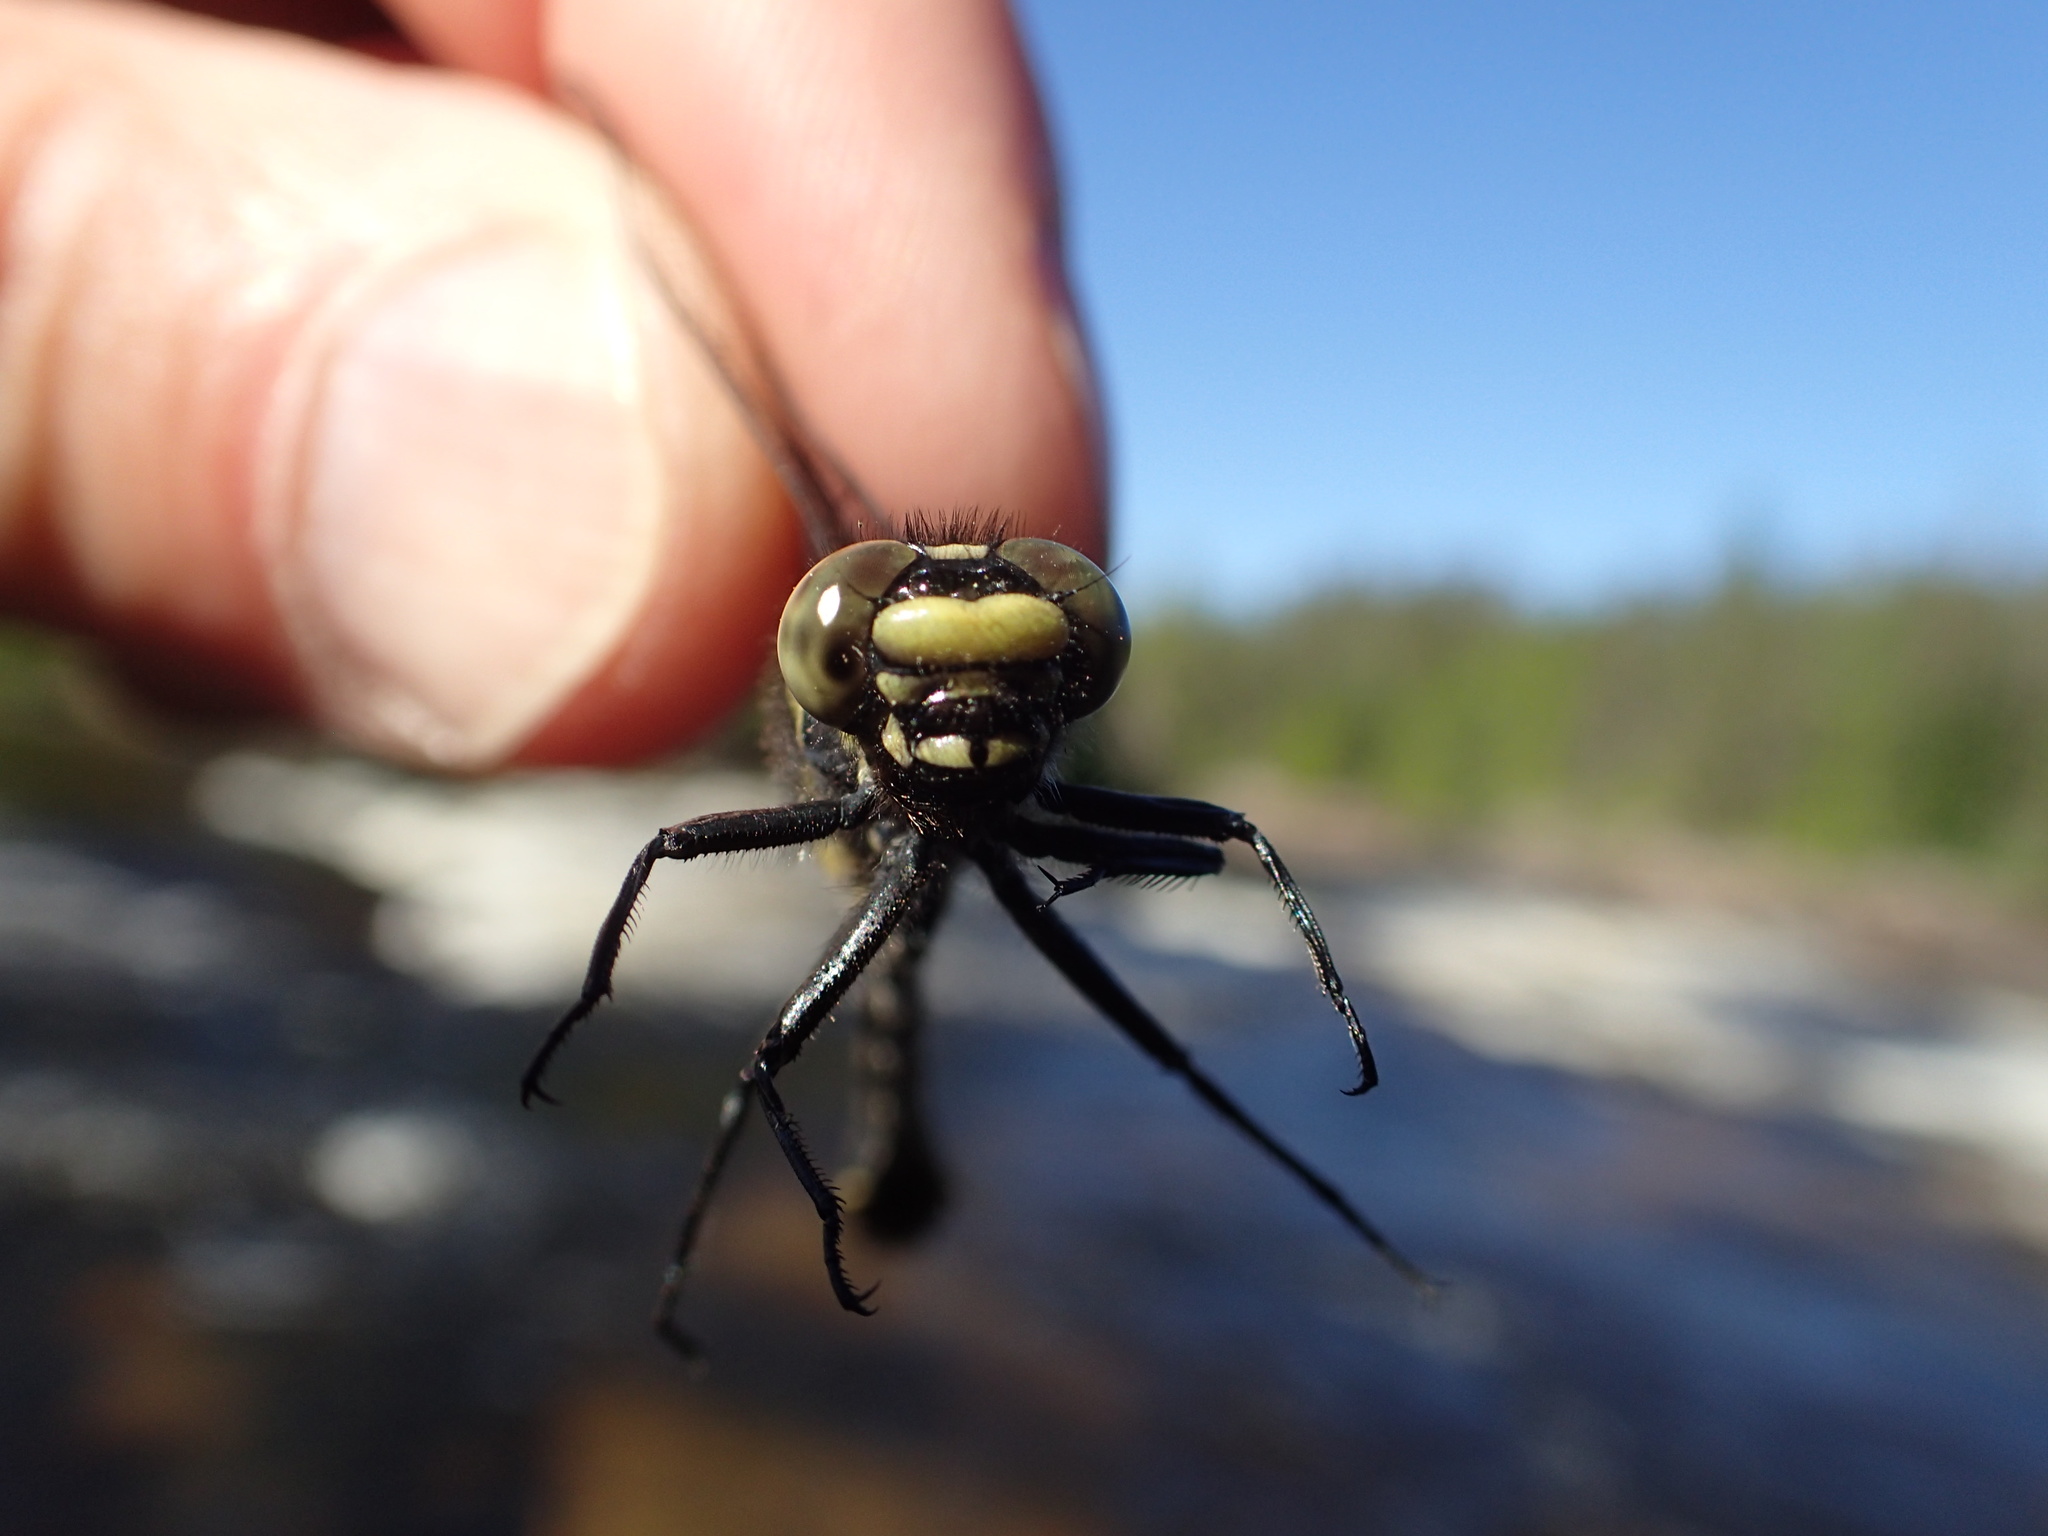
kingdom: Animalia
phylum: Arthropoda
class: Insecta
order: Odonata
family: Gomphidae
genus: Hylogomphus
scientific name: Hylogomphus adelphus
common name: Mustached clubtail
